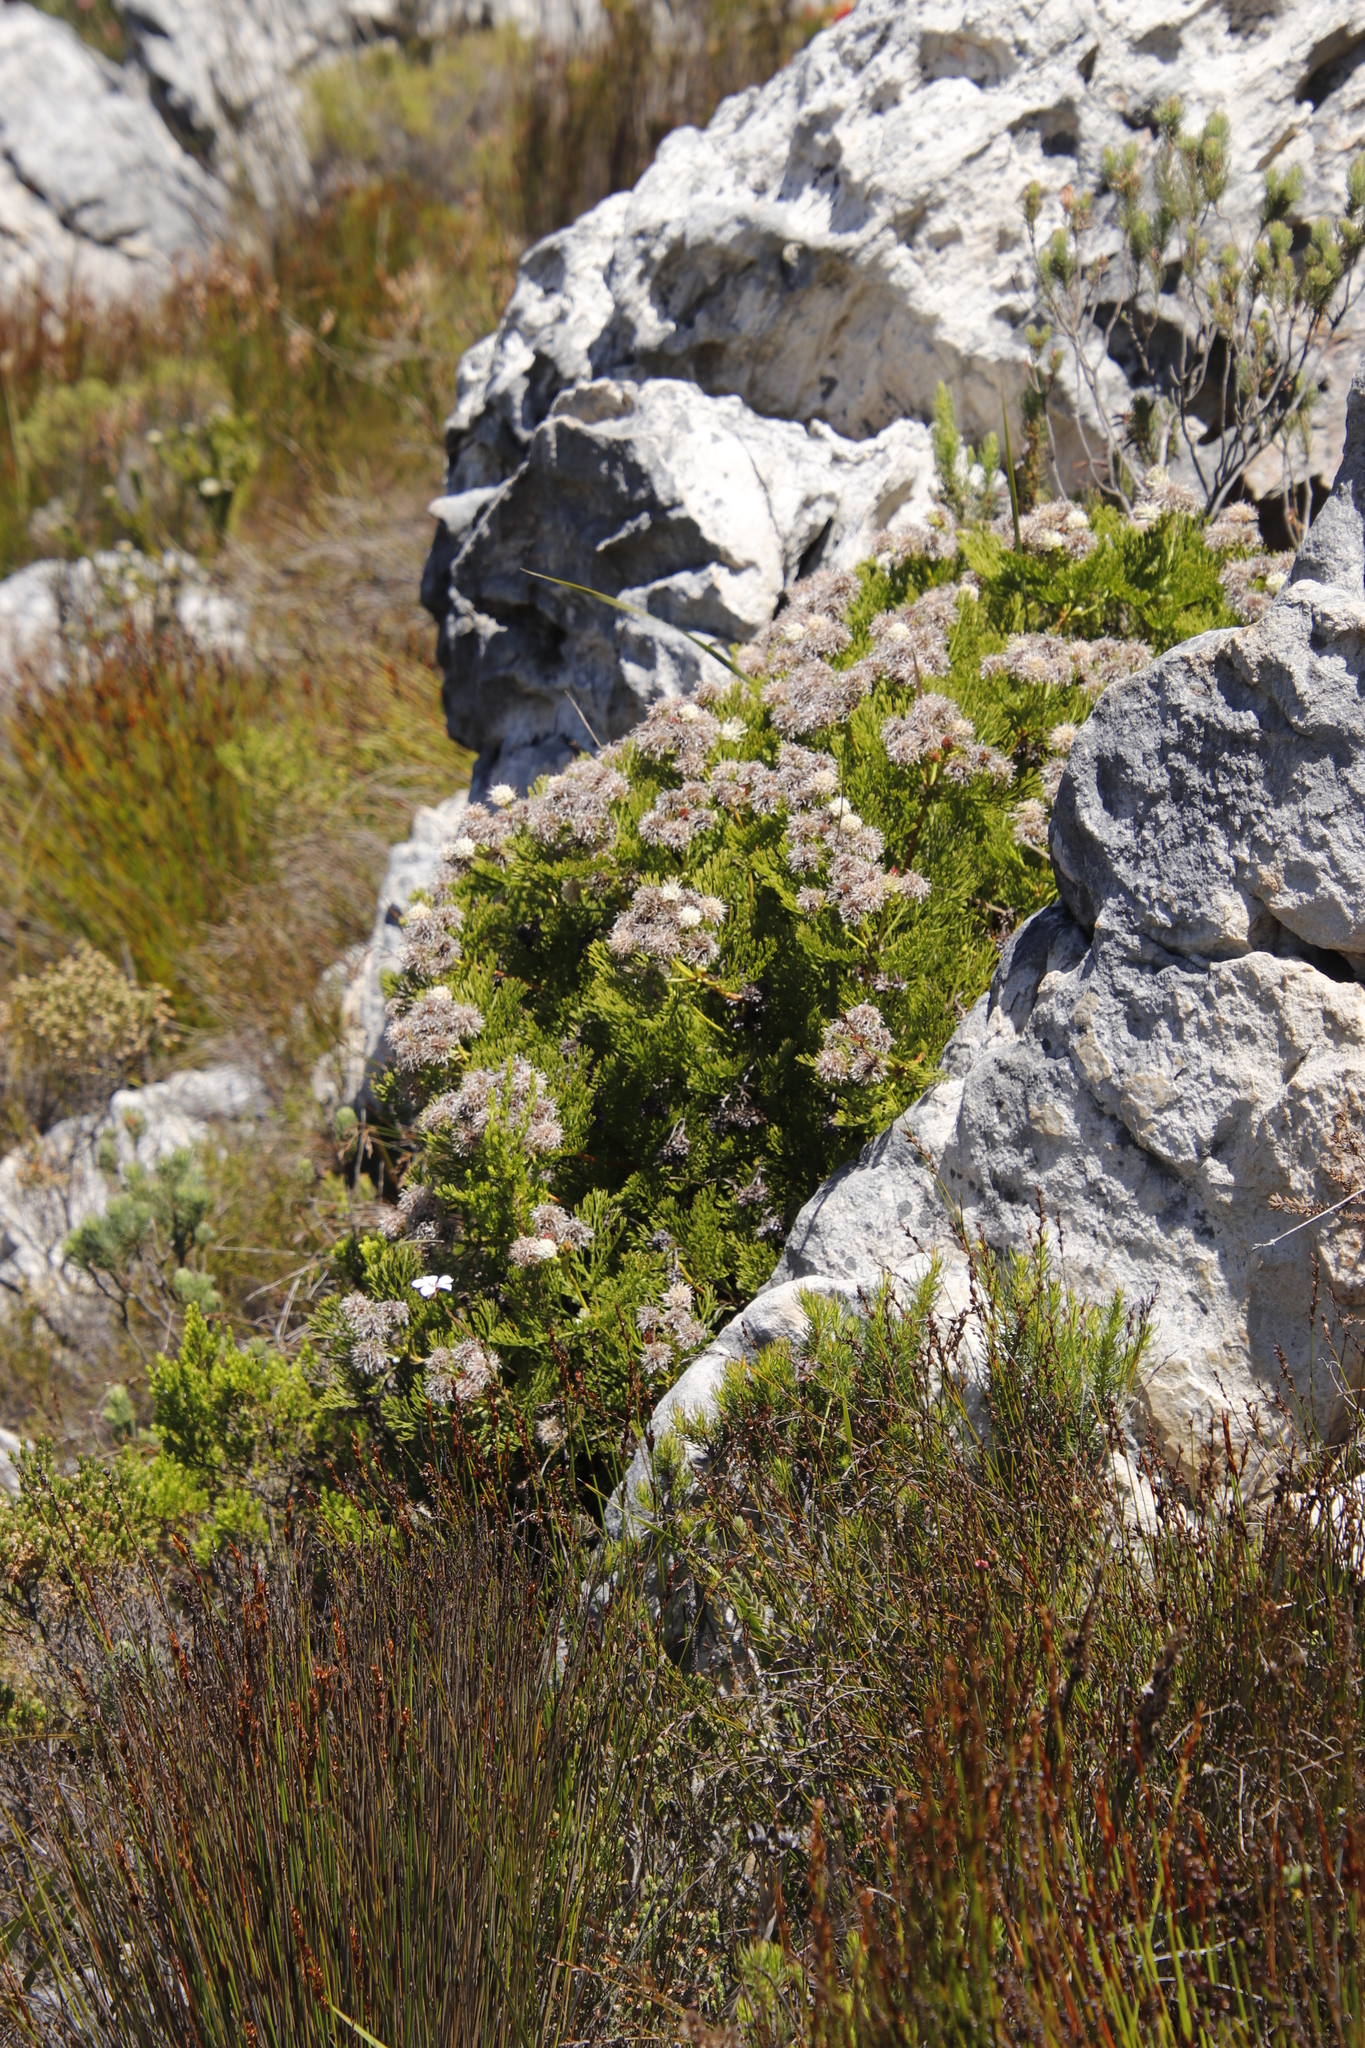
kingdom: Plantae
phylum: Tracheophyta
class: Magnoliopsida
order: Proteales
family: Proteaceae
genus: Serruria
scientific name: Serruria elongata
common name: Long-stalk spiderhead
